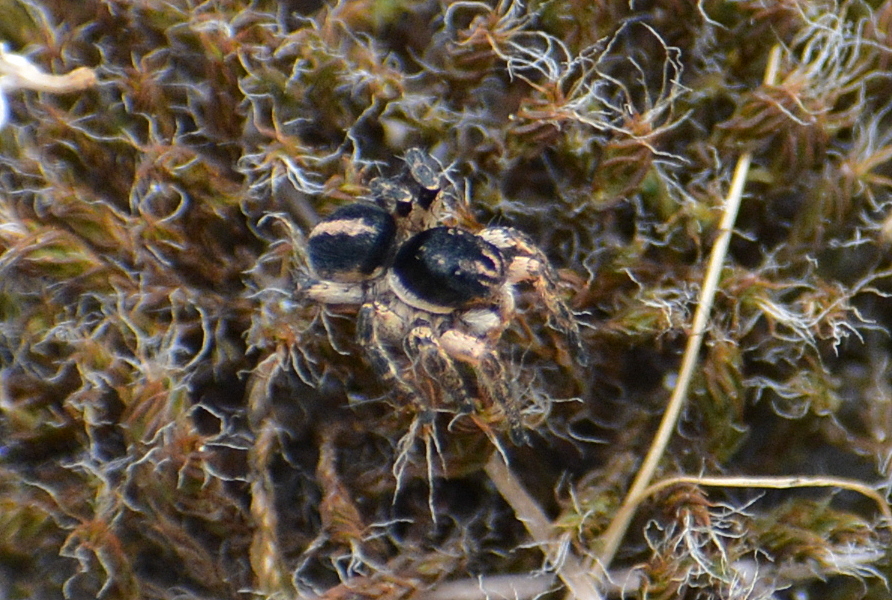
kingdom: Animalia
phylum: Arthropoda
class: Arachnida
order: Araneae
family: Salticidae
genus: Aelurillus
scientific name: Aelurillus v-insignitus
